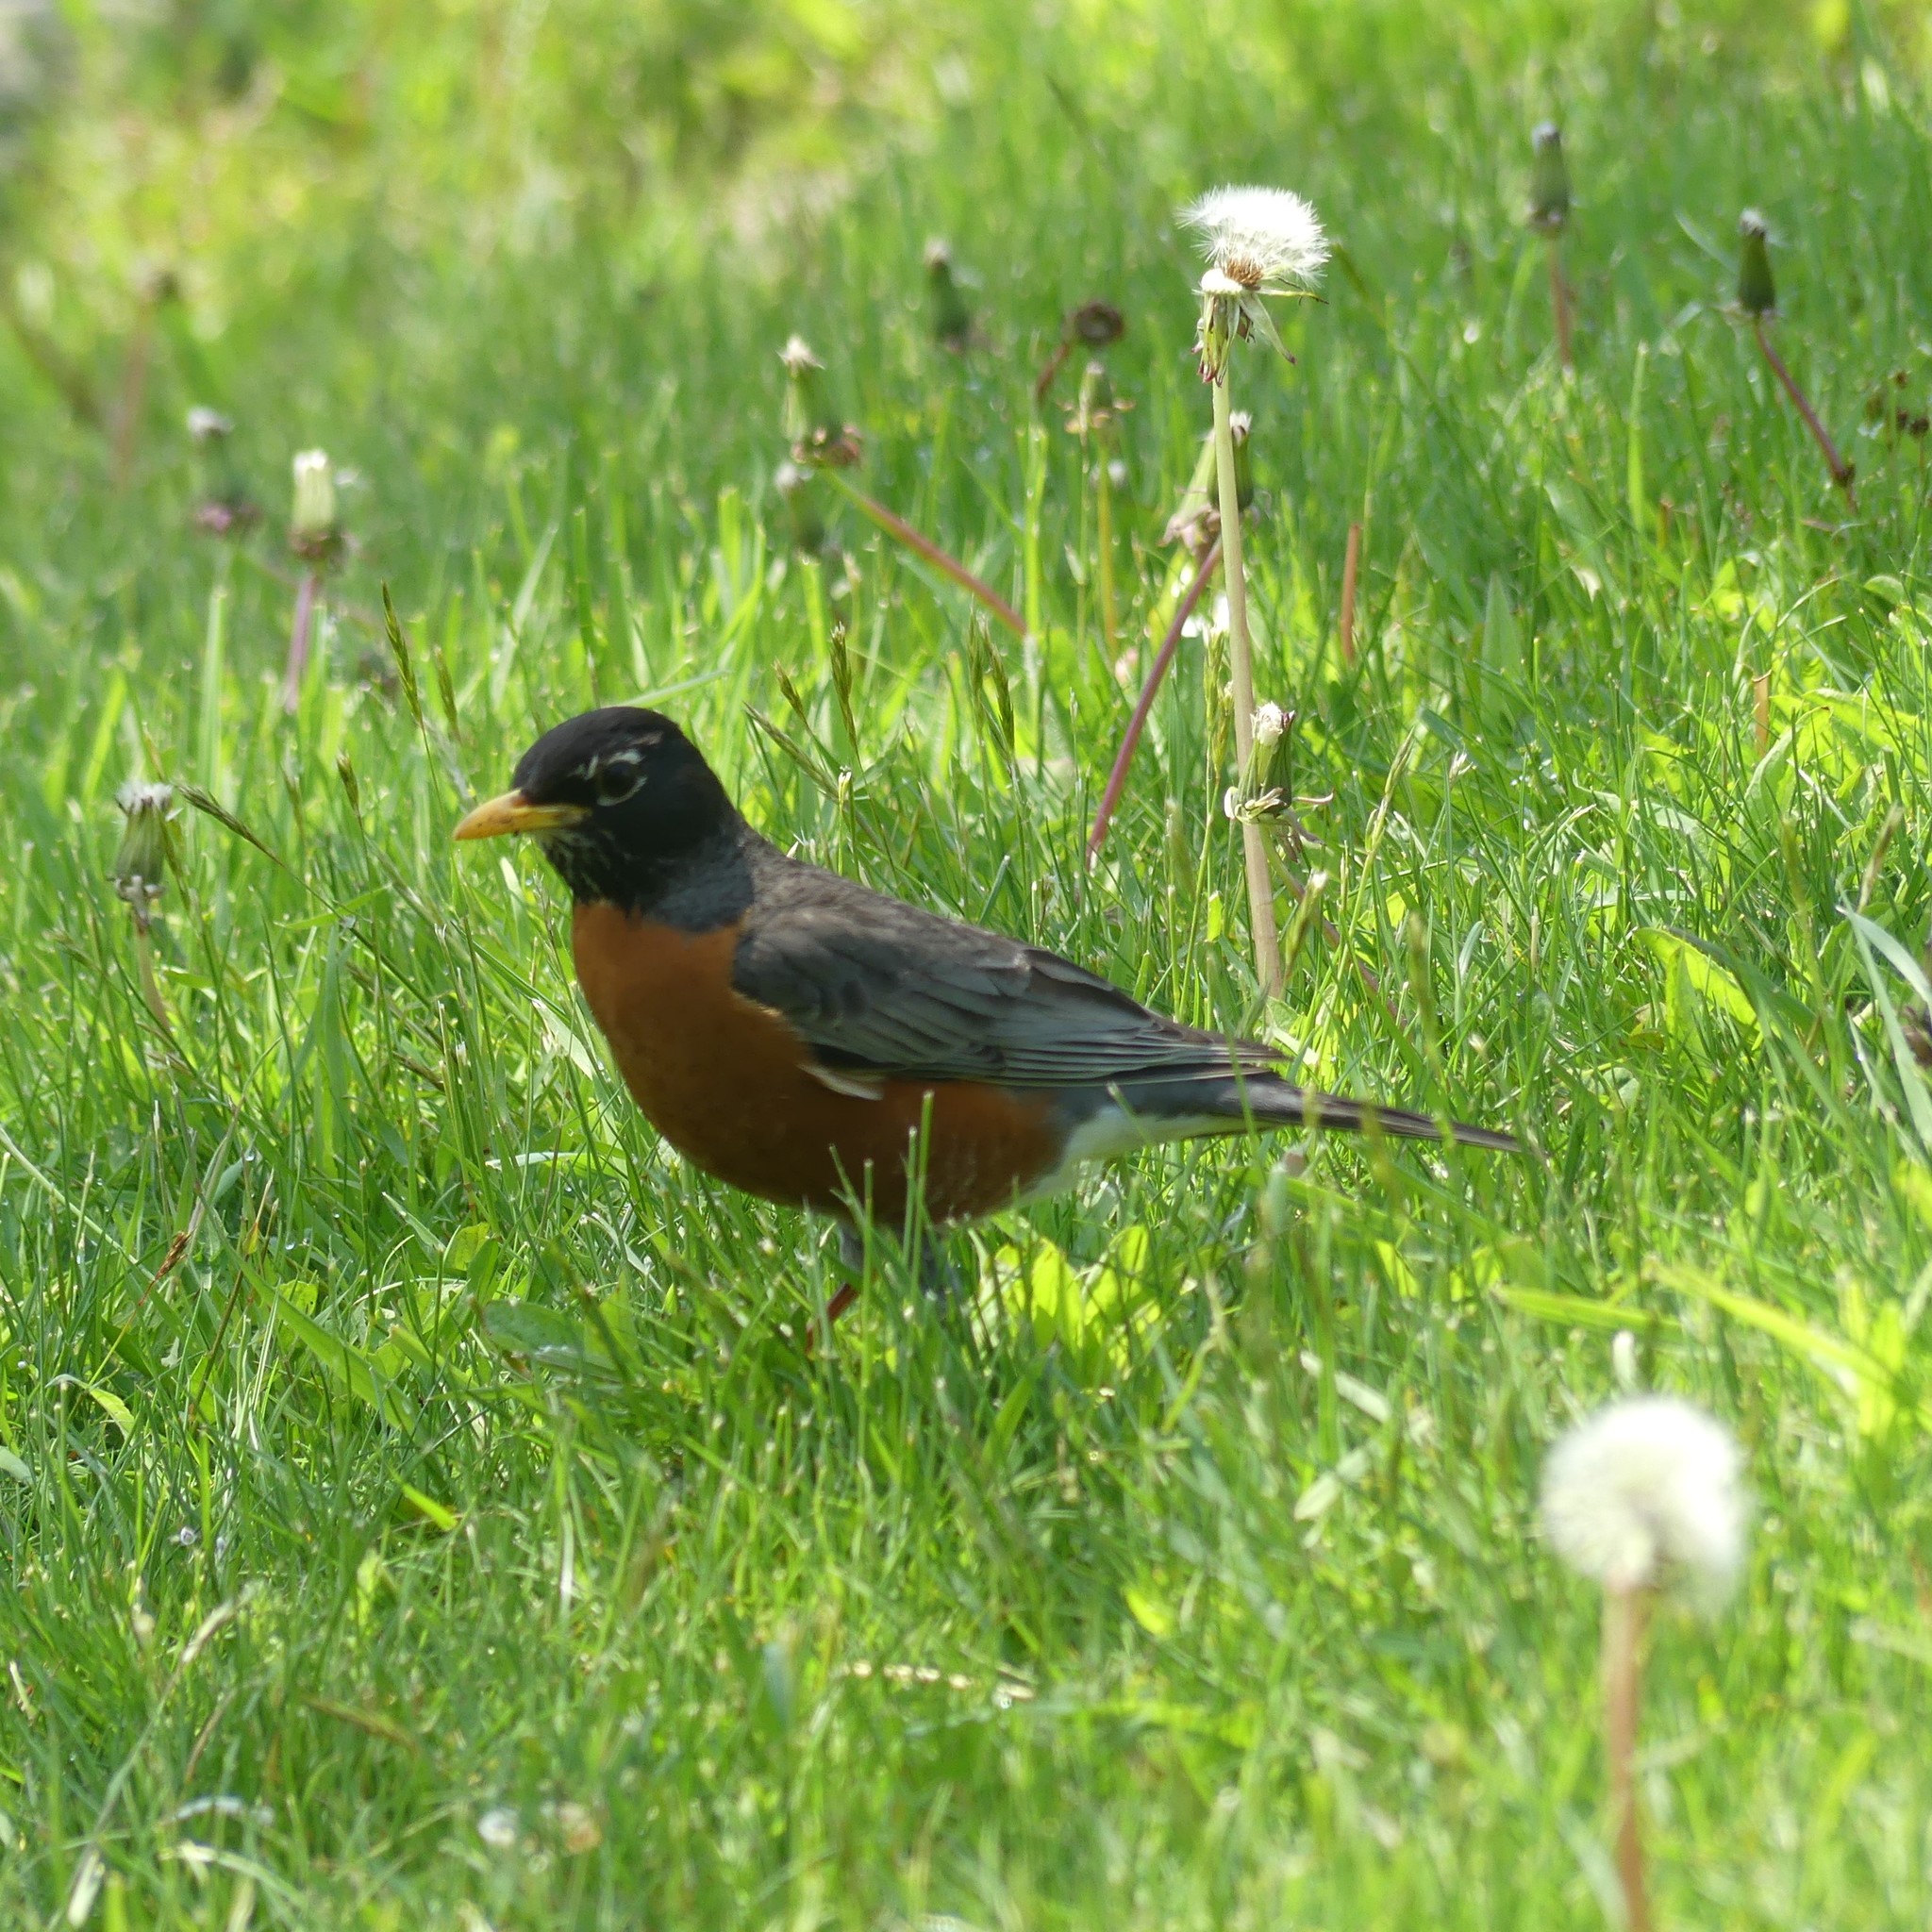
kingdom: Animalia
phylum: Chordata
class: Aves
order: Passeriformes
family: Turdidae
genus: Turdus
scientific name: Turdus migratorius
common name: American robin
